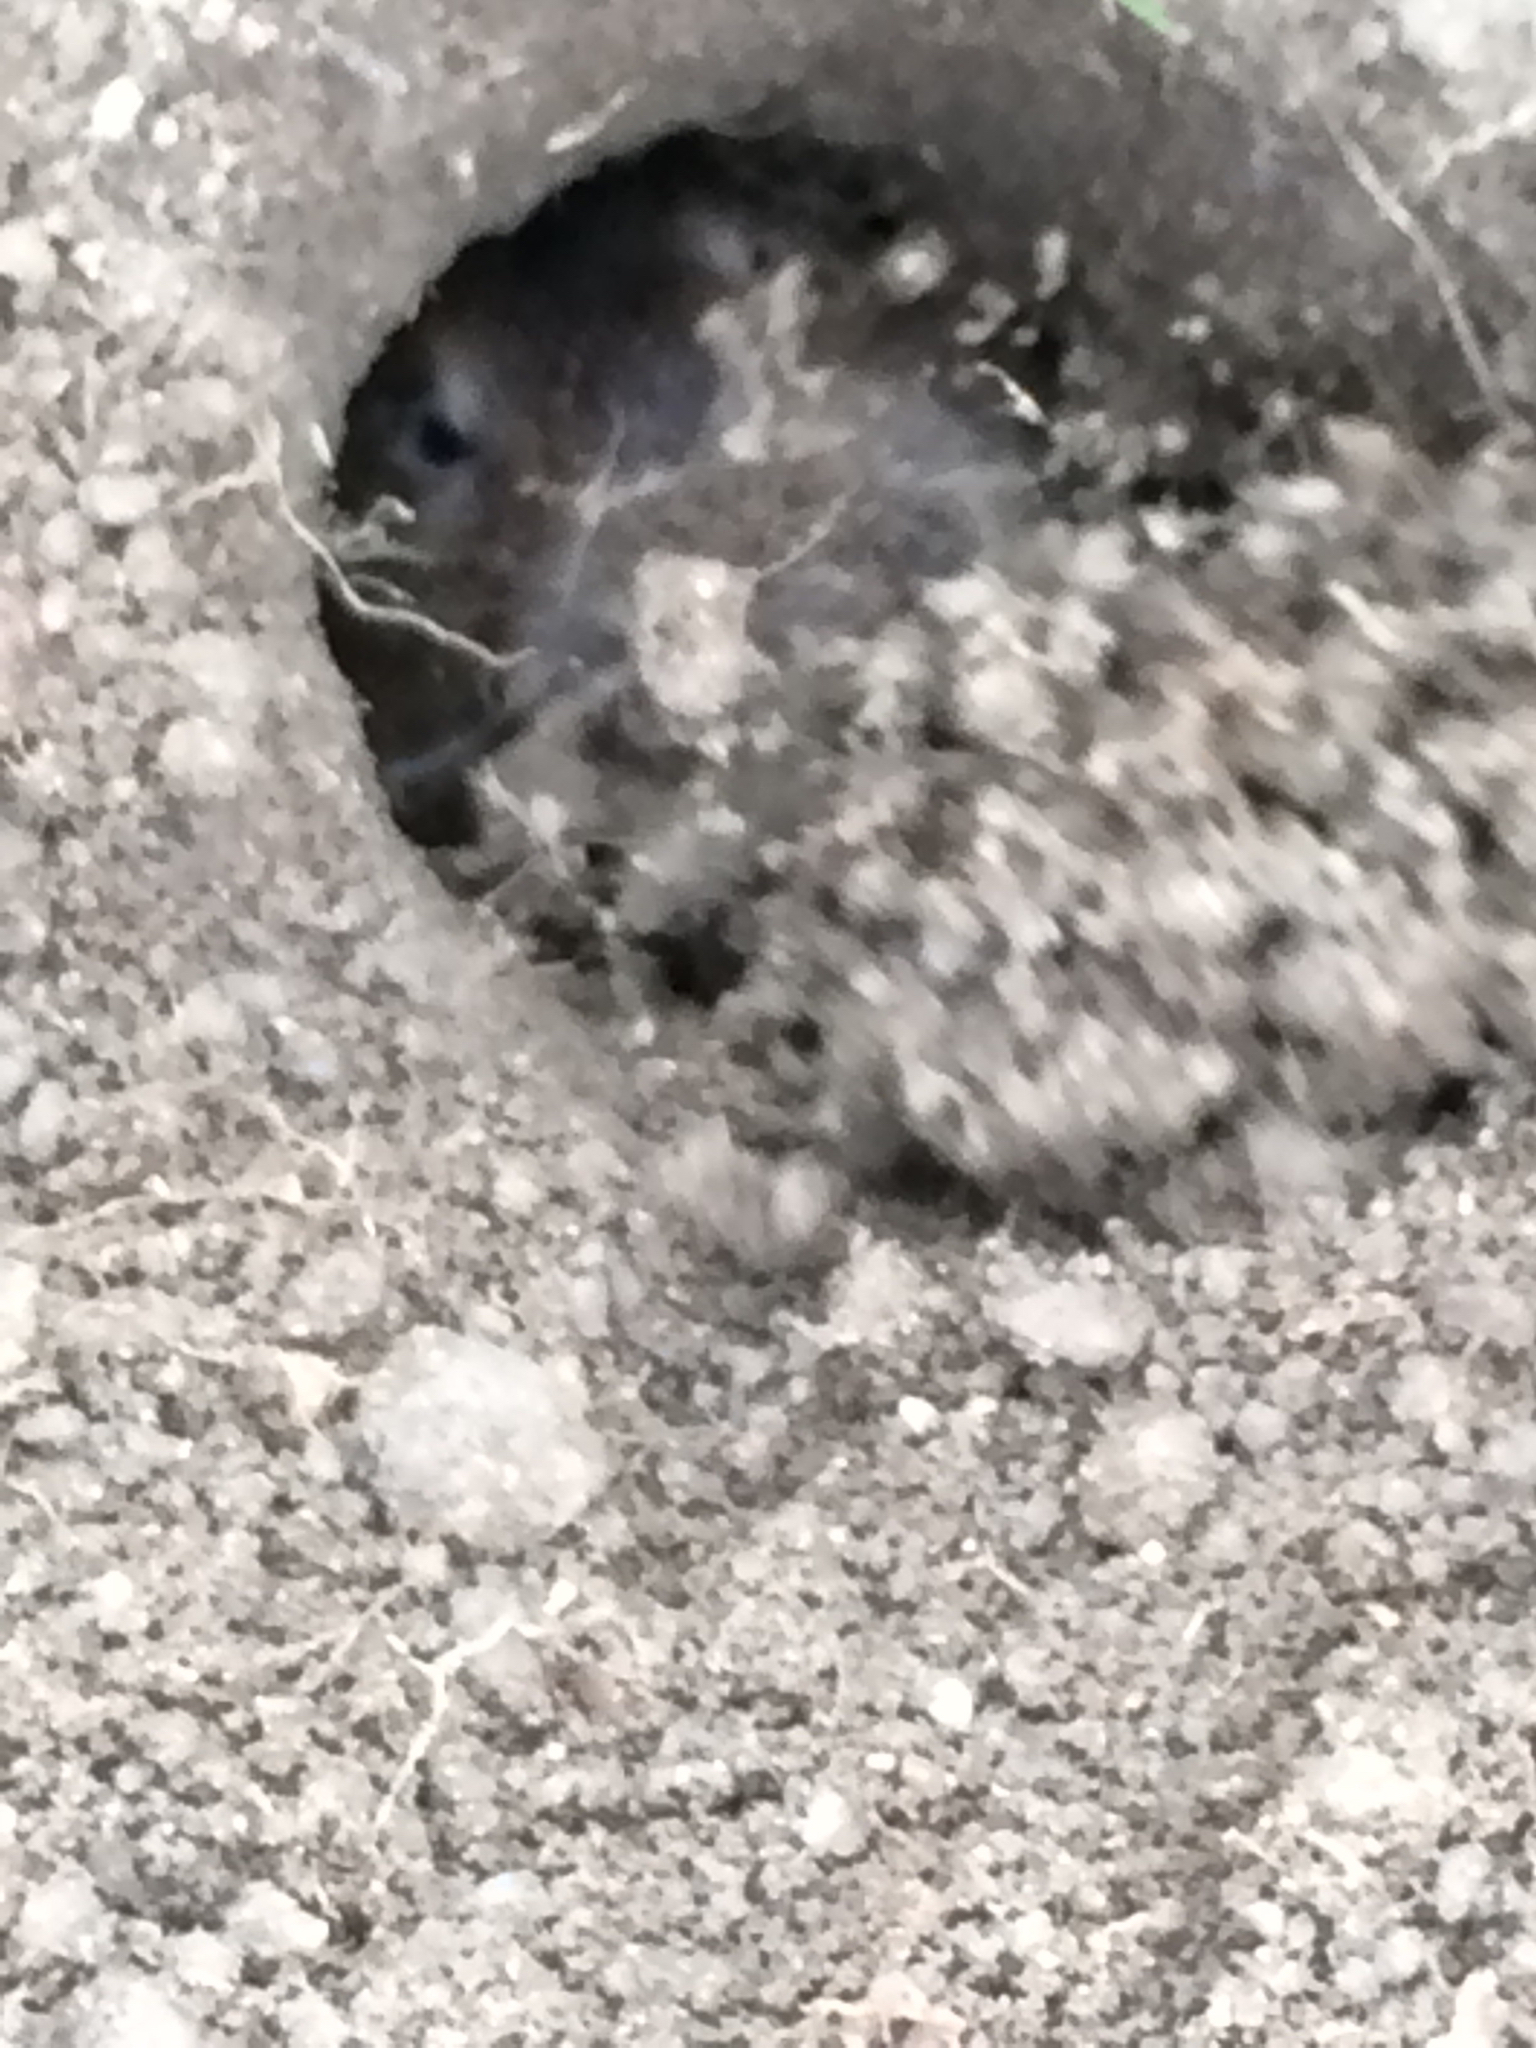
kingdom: Animalia
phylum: Chordata
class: Mammalia
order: Rodentia
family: Geomyidae
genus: Thomomys
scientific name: Thomomys bottae
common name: Botta's pocket gopher
